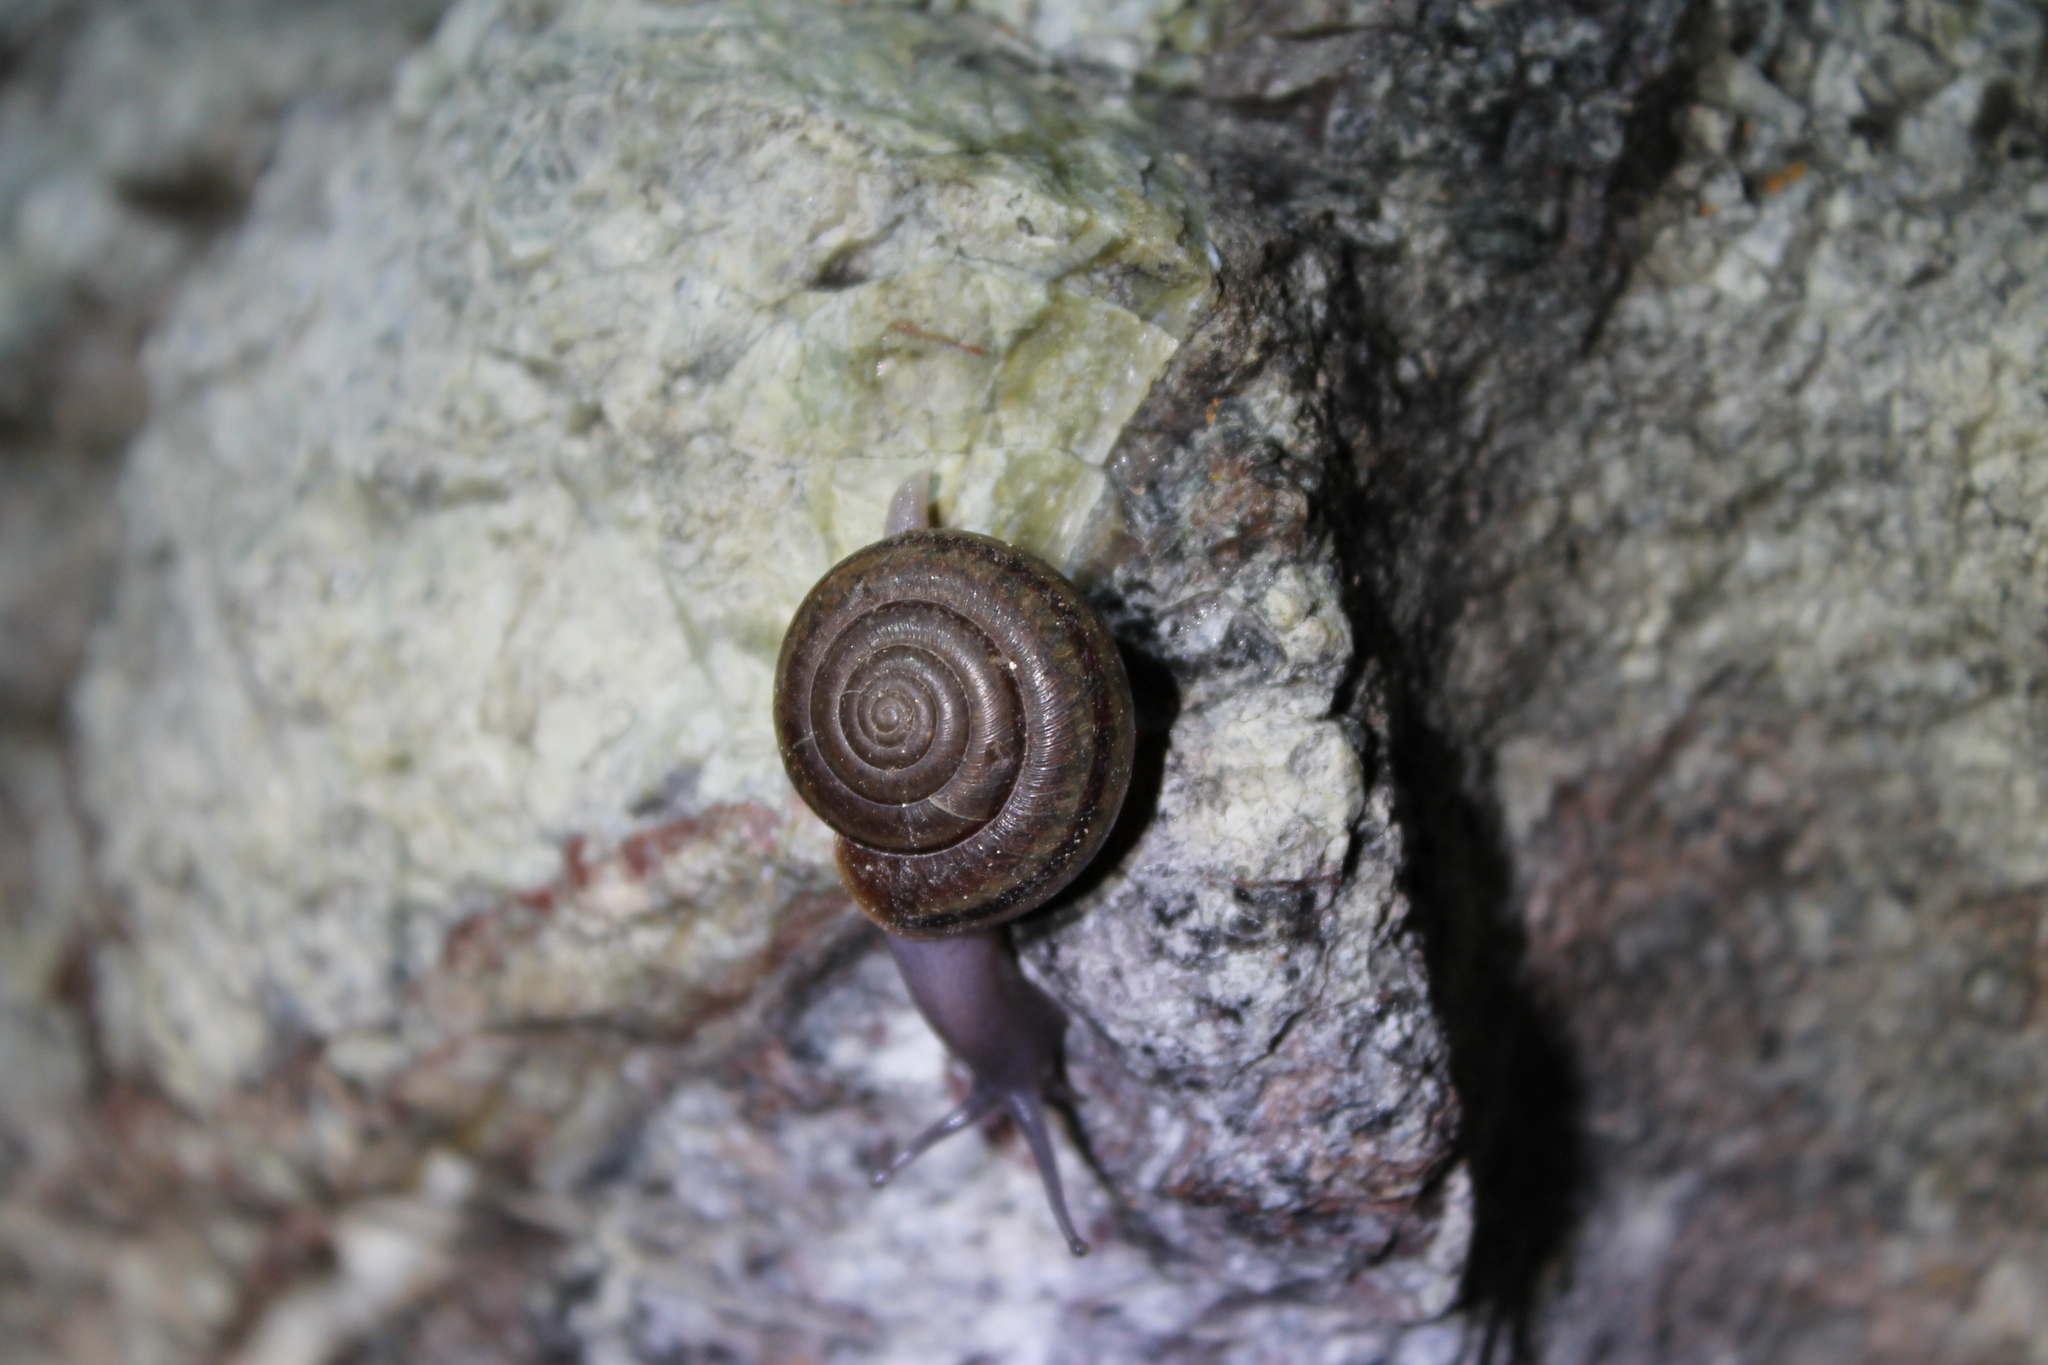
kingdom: Animalia
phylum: Mollusca
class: Gastropoda
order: Stylommatophora
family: Xanthonychidae
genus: Helminthoglypta
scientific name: Helminthoglypta benitoensis
